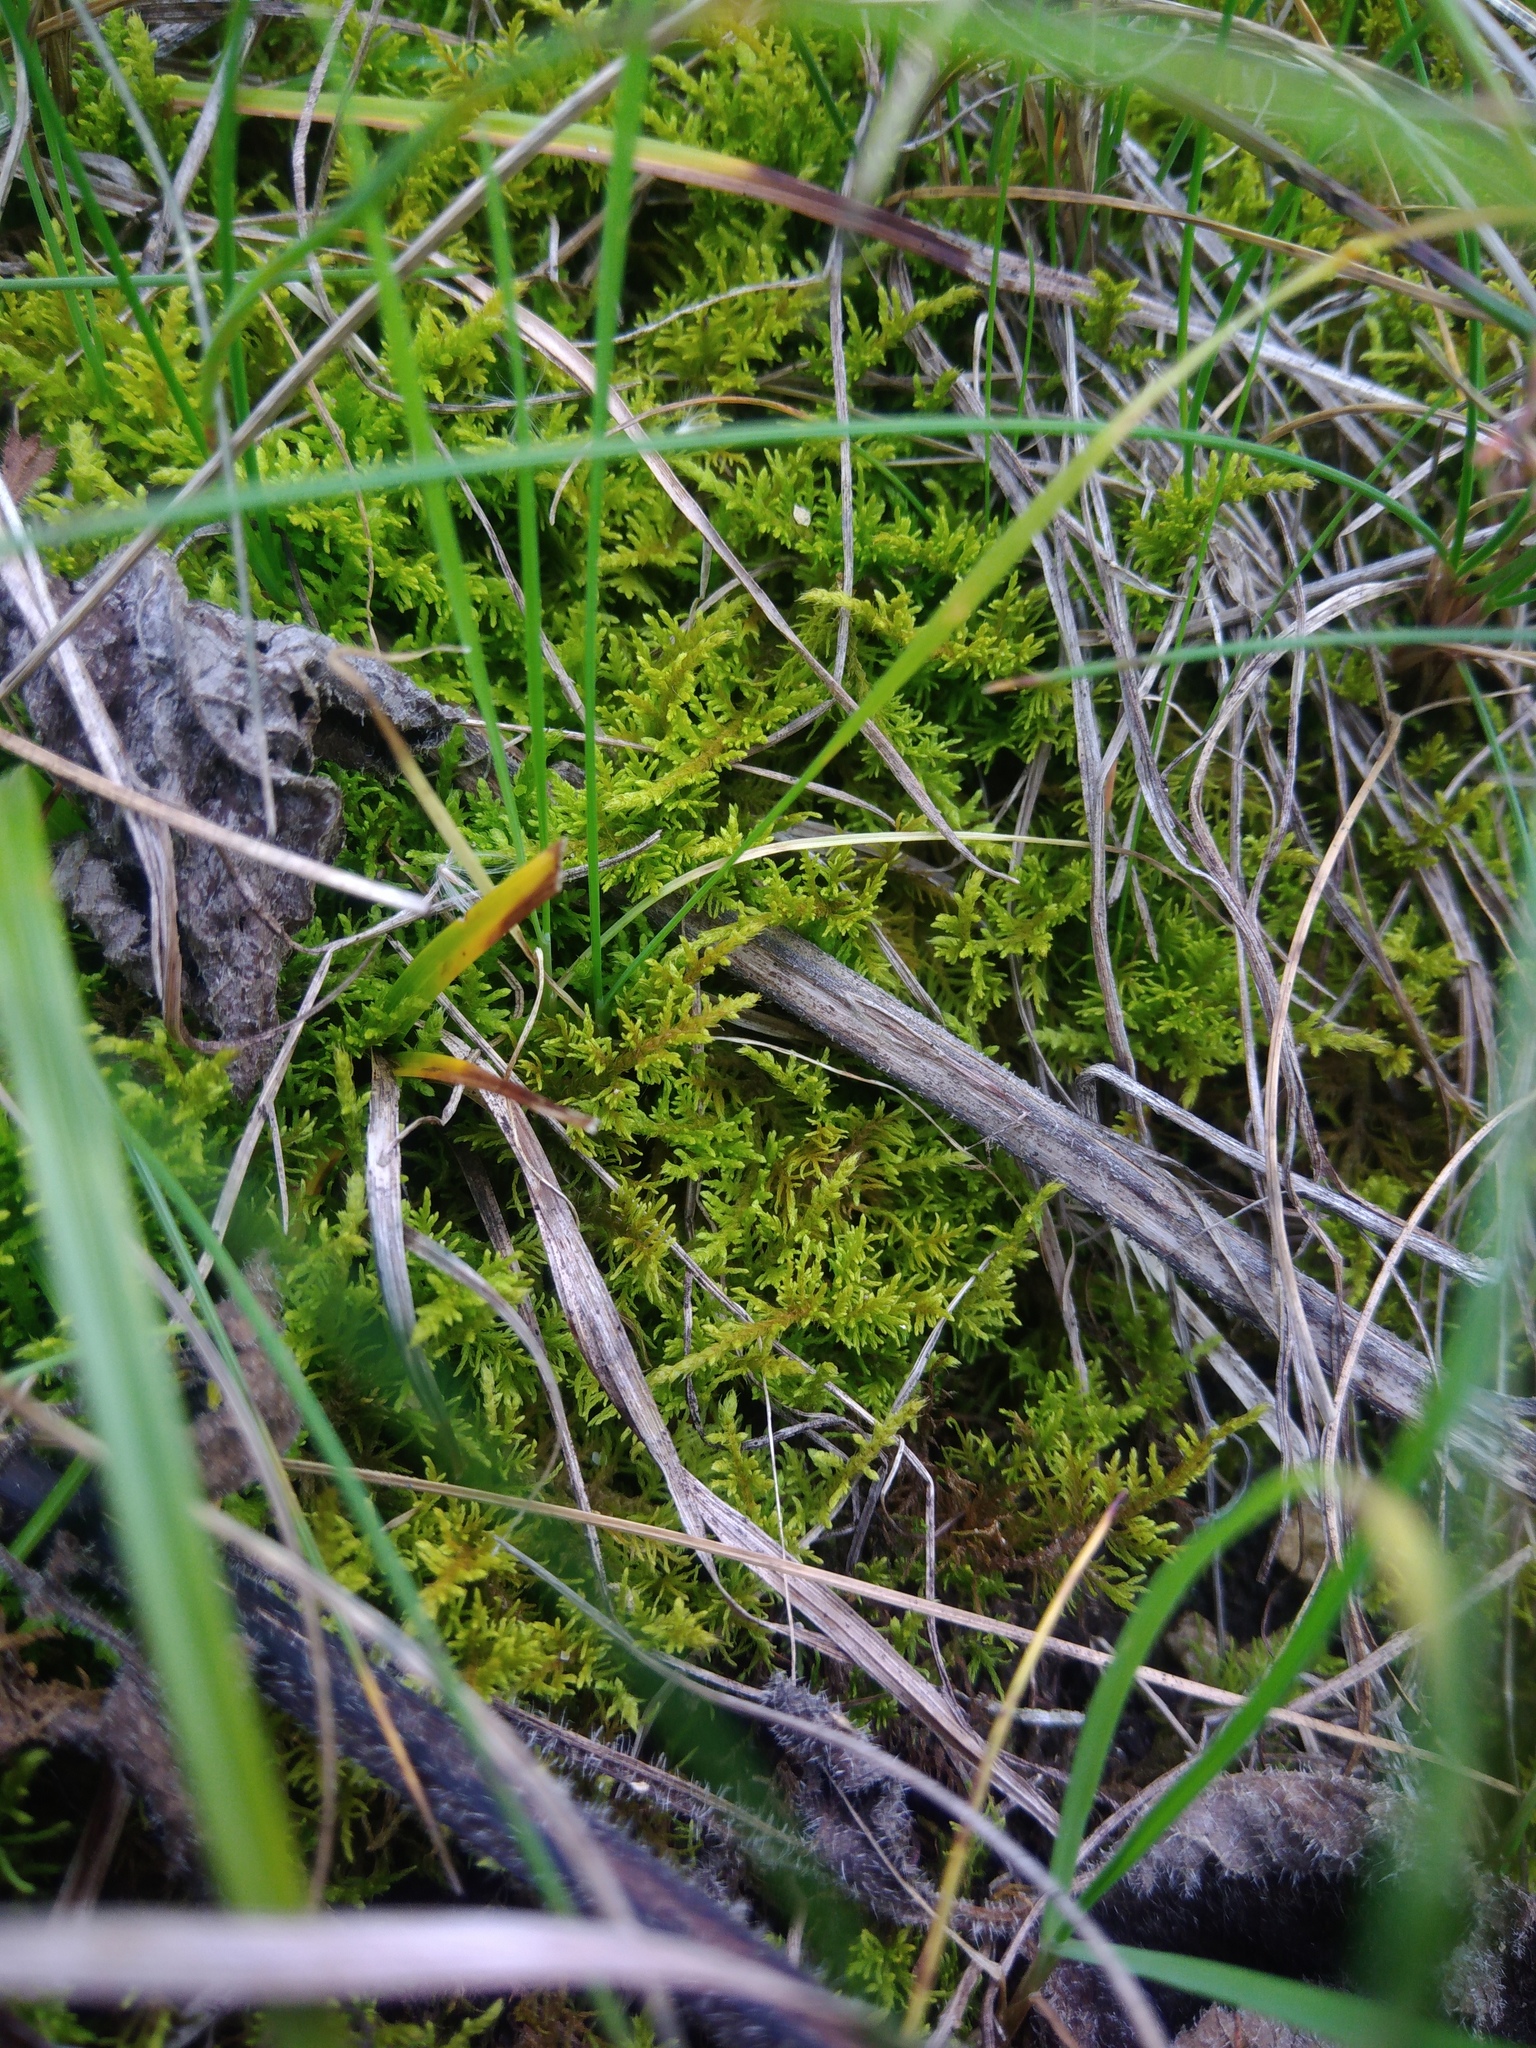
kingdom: Plantae
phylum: Bryophyta
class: Bryopsida
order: Hypnales
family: Thuidiaceae
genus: Thuidium
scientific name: Thuidium assimile
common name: Philibert's fern moss
